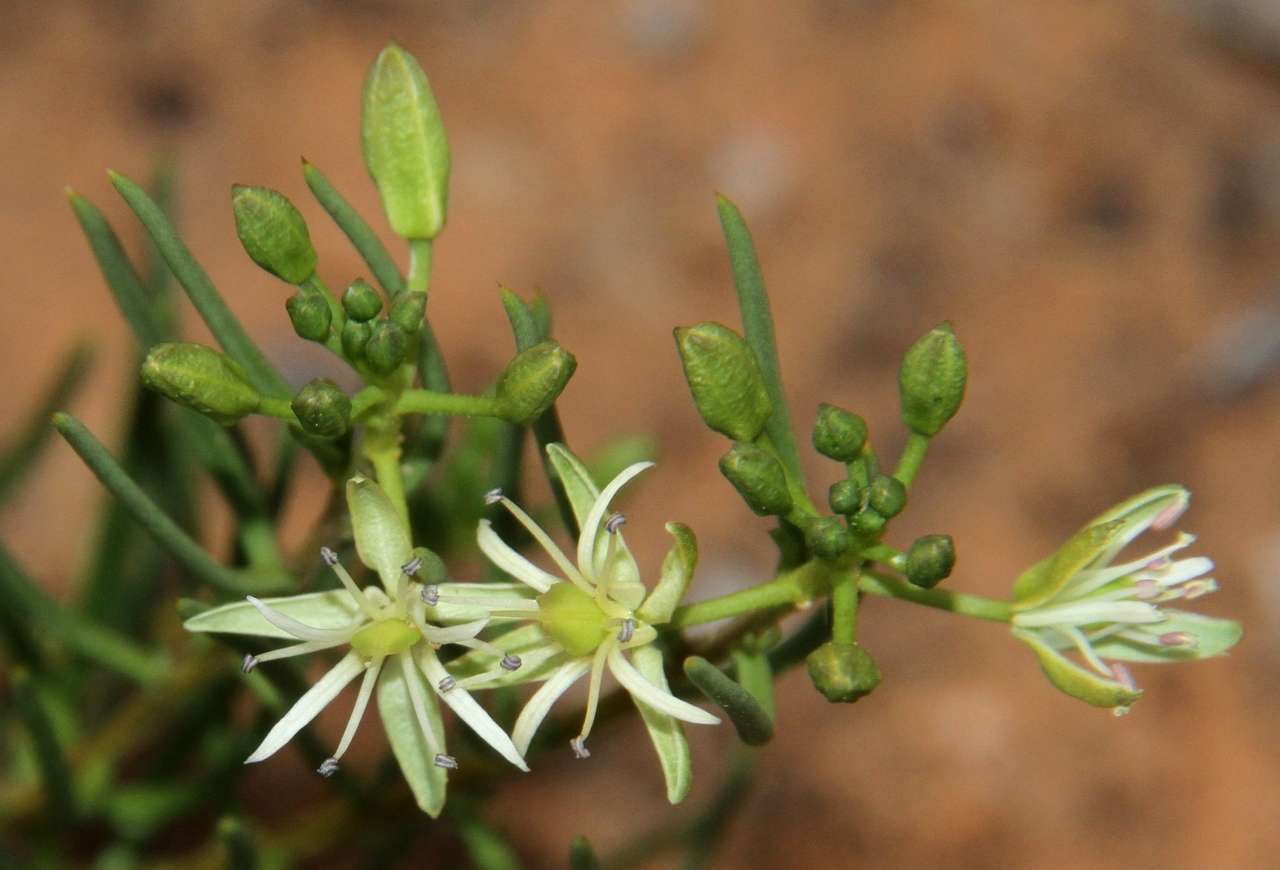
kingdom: Plantae
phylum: Tracheophyta
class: Magnoliopsida
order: Brassicales
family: Brassicaceae
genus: Lepidium
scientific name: Lepidium leptopetalum
